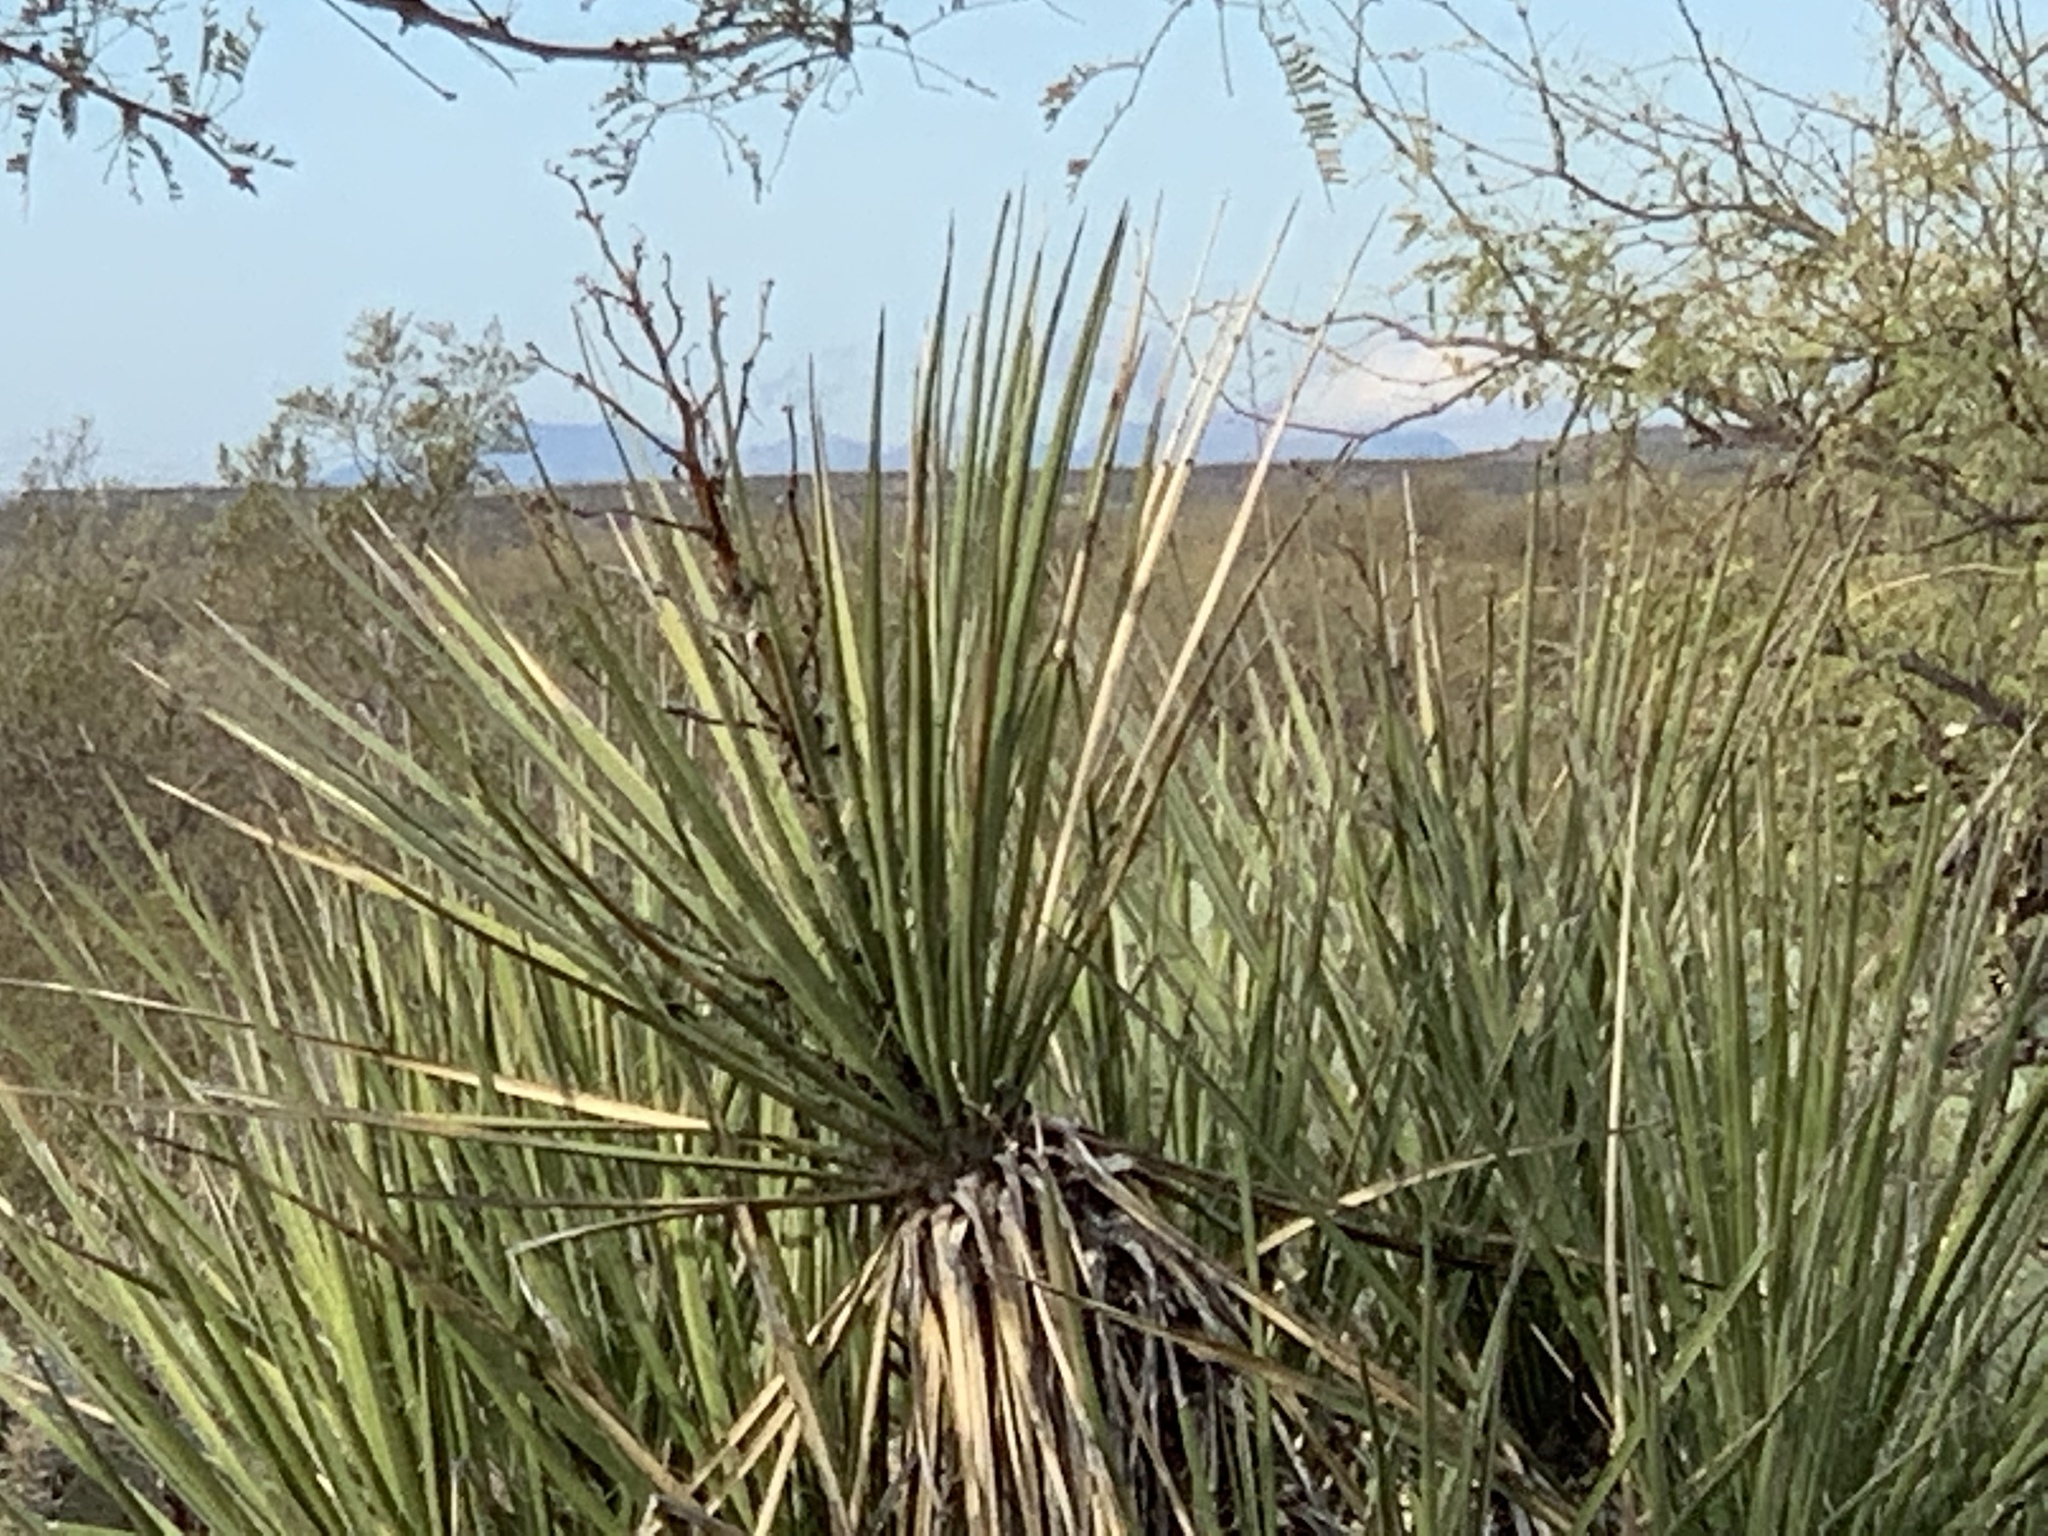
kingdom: Plantae
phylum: Tracheophyta
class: Liliopsida
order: Asparagales
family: Asparagaceae
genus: Yucca
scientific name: Yucca baccata
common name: Banana yucca
